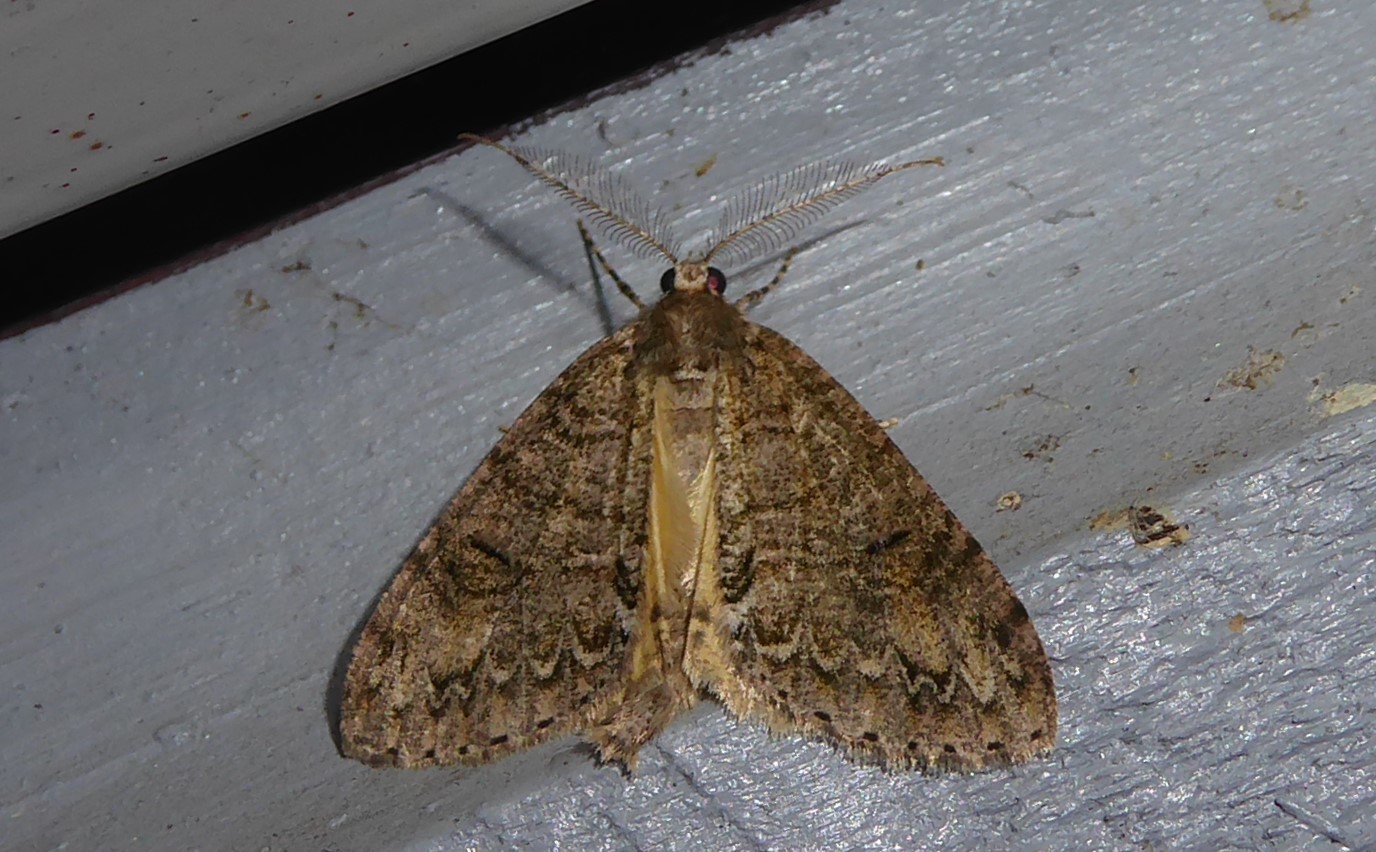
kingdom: Animalia
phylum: Arthropoda
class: Insecta
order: Lepidoptera
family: Geometridae
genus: Pseudocoremia
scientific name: Pseudocoremia suavis
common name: Common forest looper
